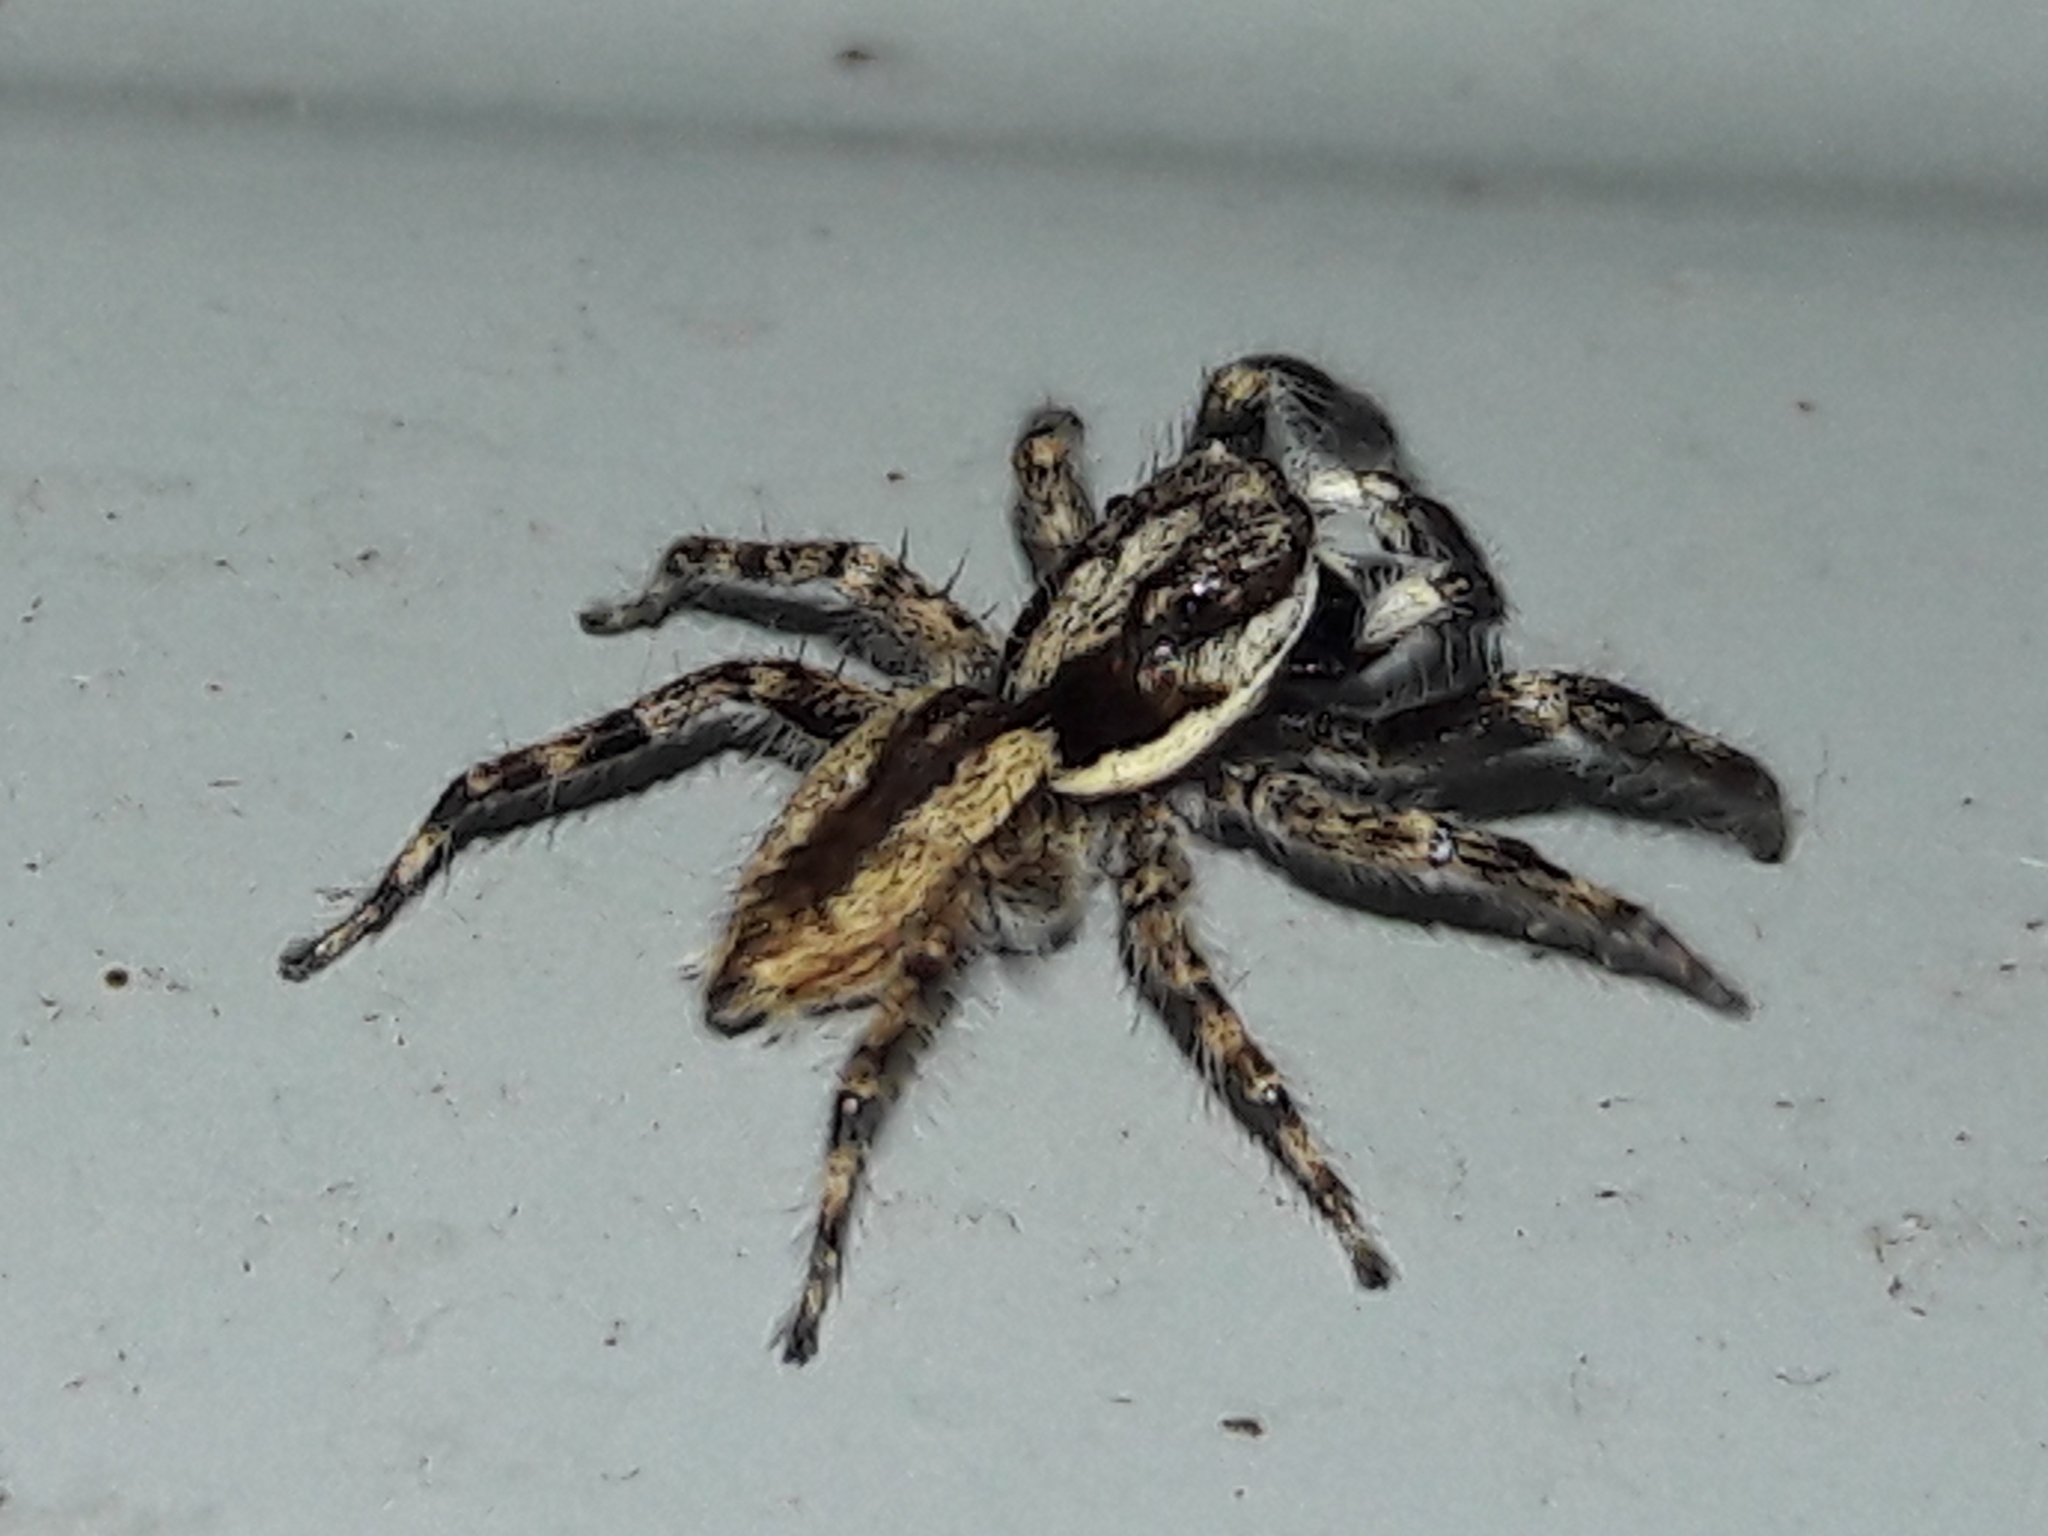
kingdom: Animalia
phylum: Arthropoda
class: Arachnida
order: Araneae
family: Salticidae
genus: Menemerus
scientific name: Menemerus bivittatus
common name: Gray wall jumper
